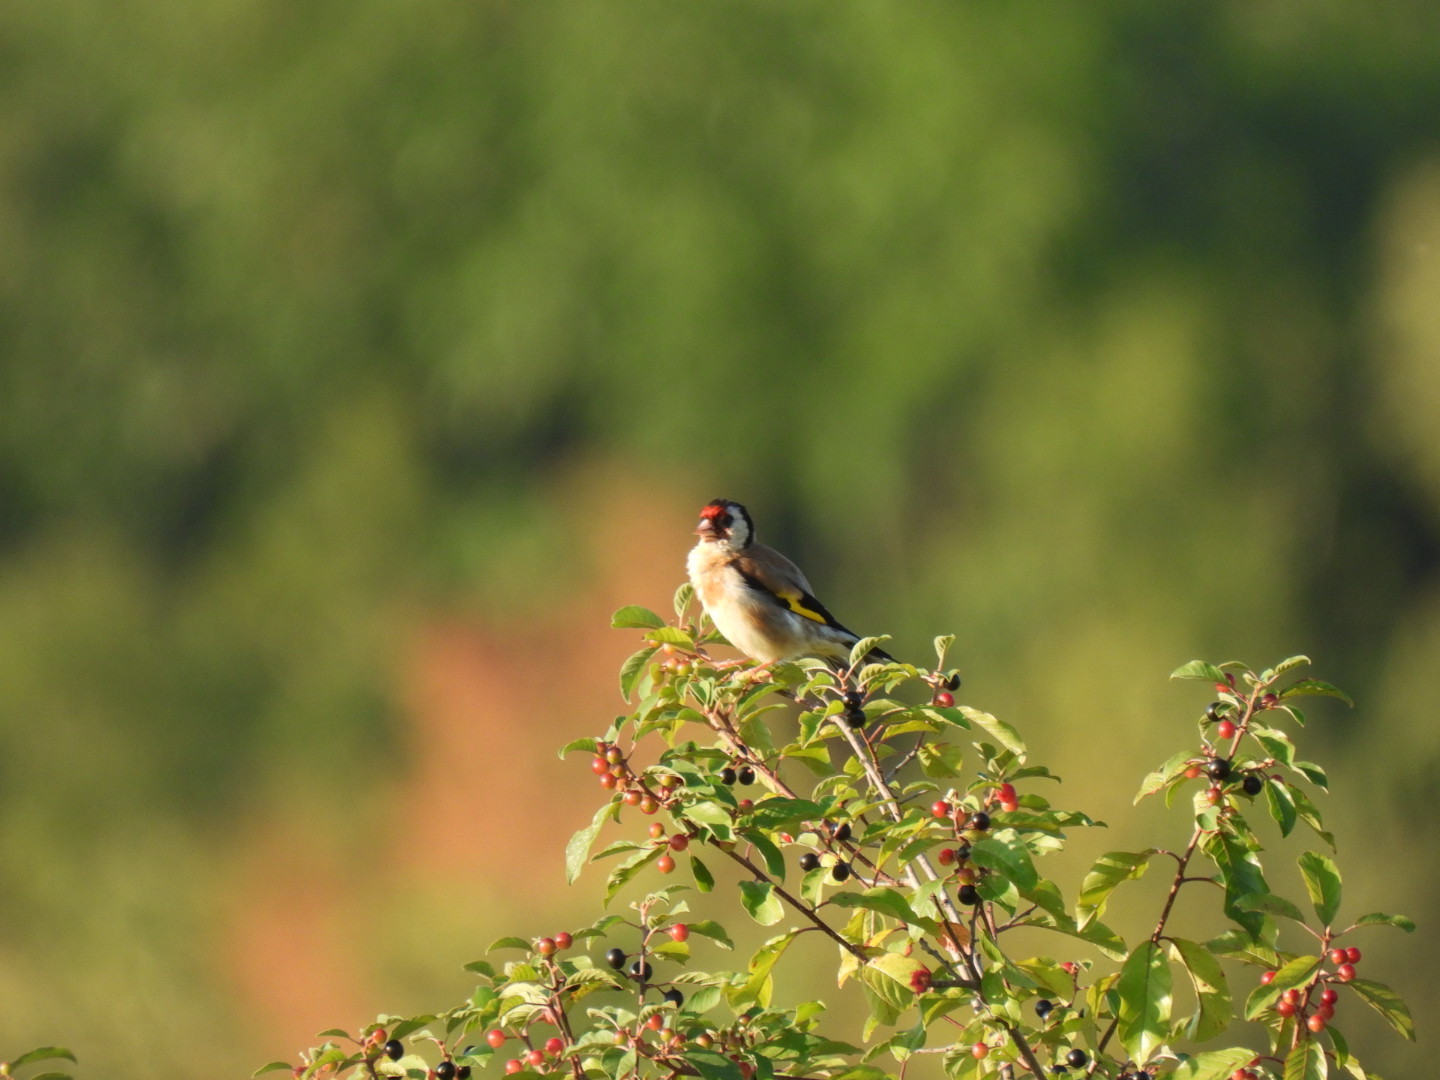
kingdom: Animalia
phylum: Chordata
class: Aves
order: Passeriformes
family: Fringillidae
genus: Carduelis
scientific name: Carduelis carduelis
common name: European goldfinch
